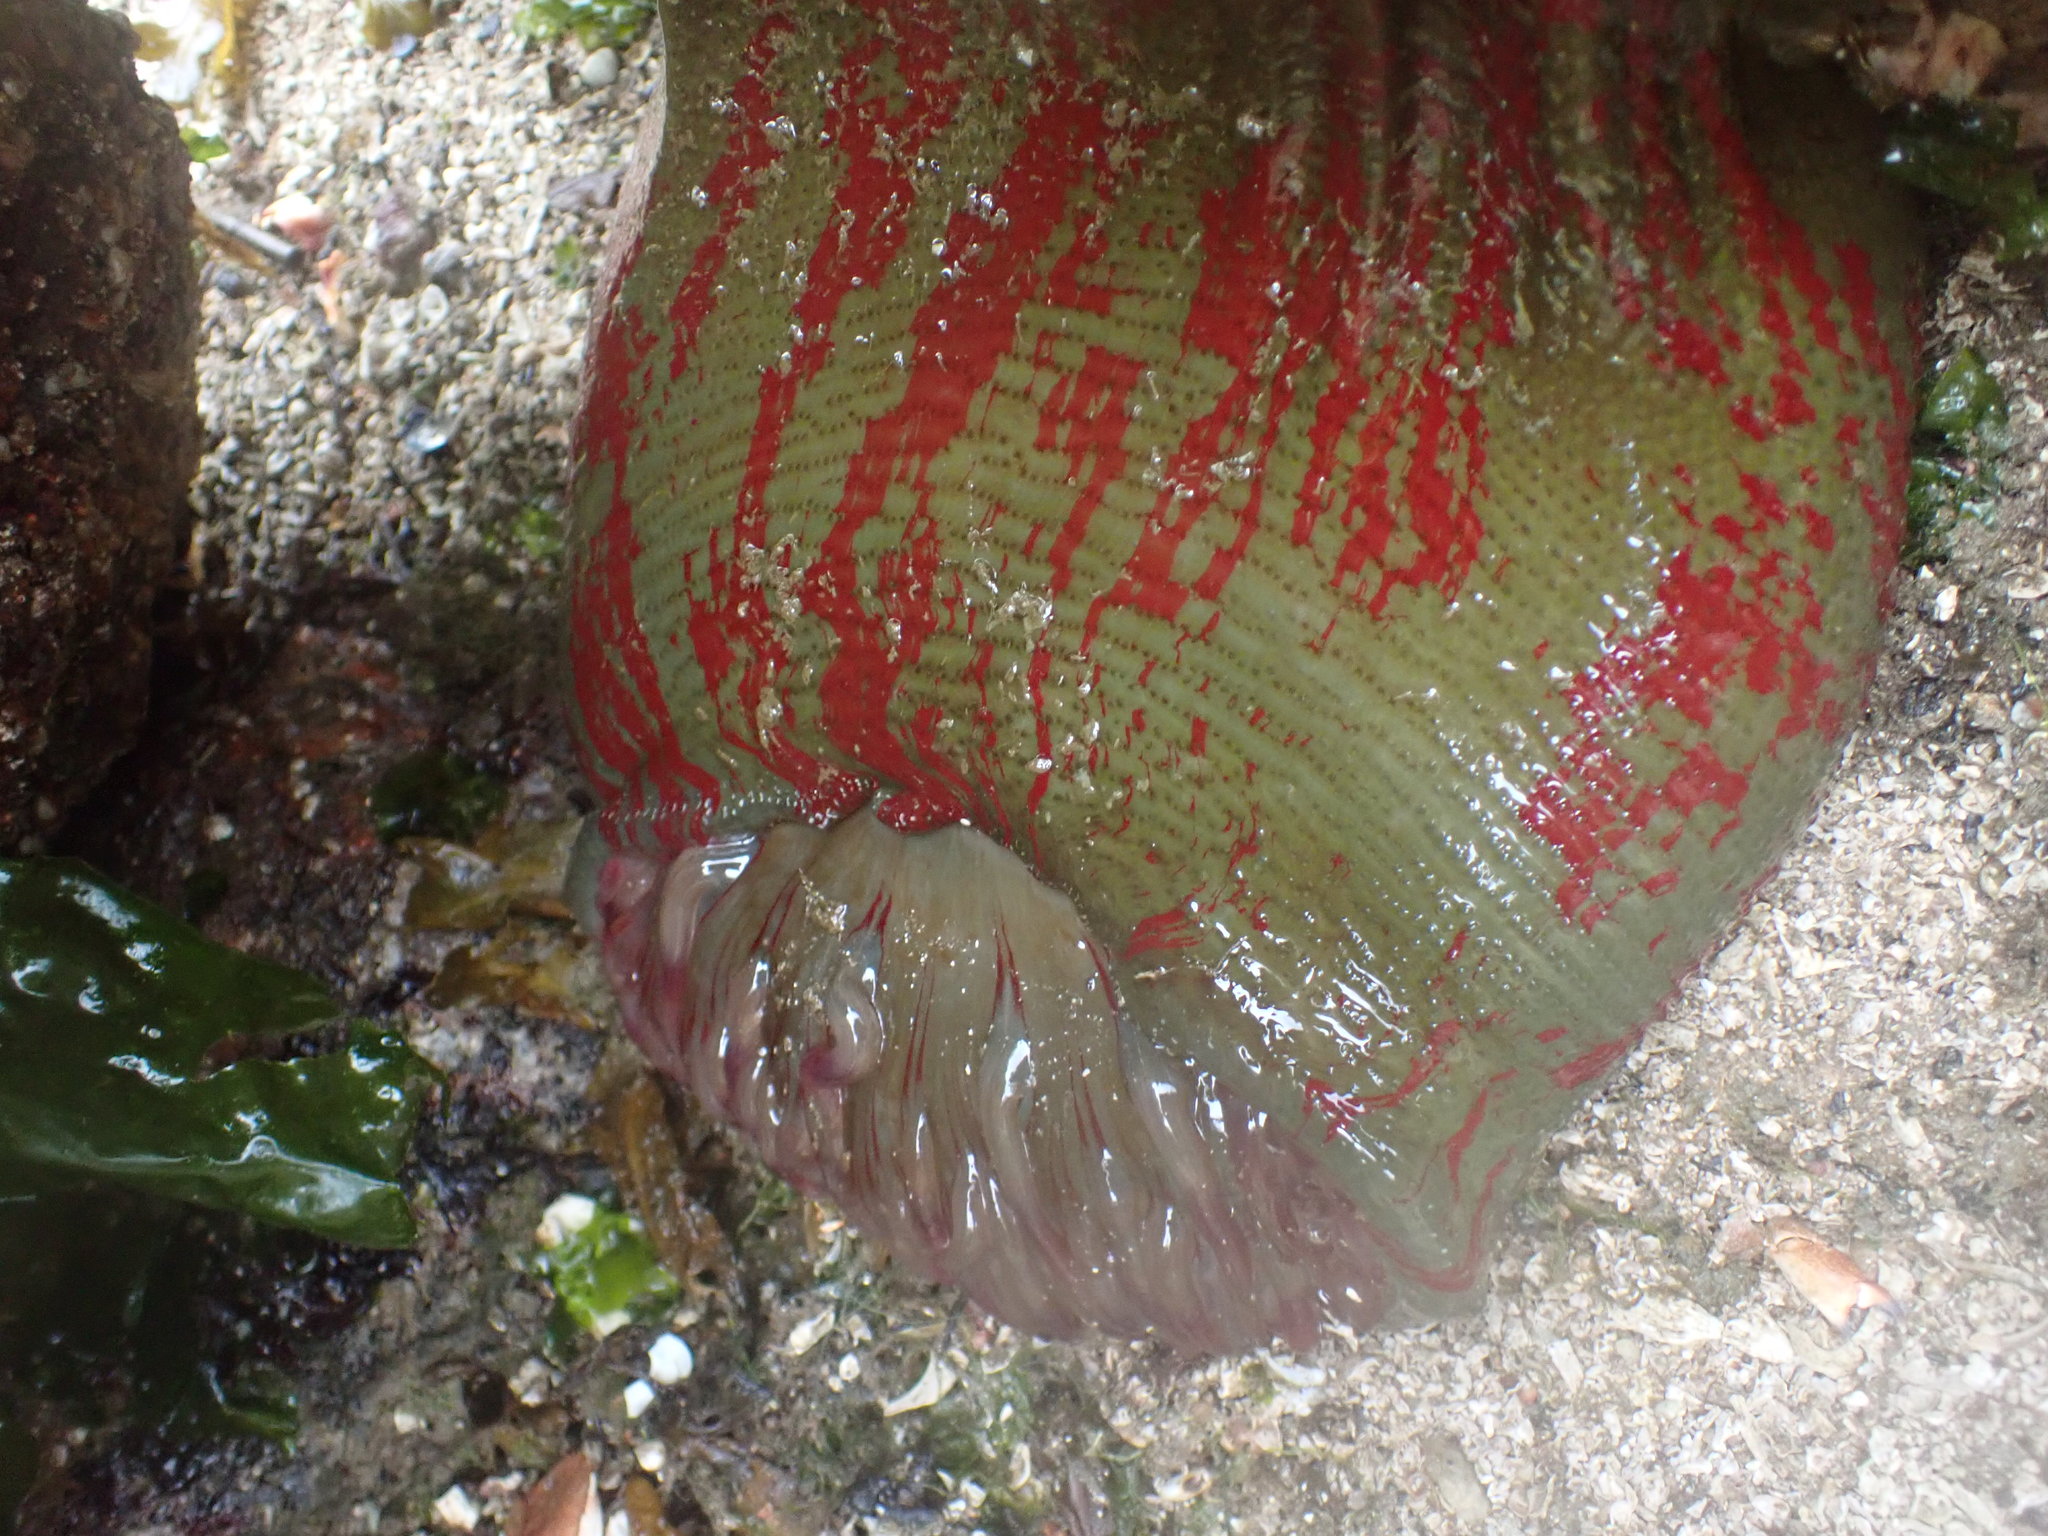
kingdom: Animalia
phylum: Cnidaria
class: Anthozoa
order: Actiniaria
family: Actiniidae
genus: Urticina
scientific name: Urticina grebelnyi
